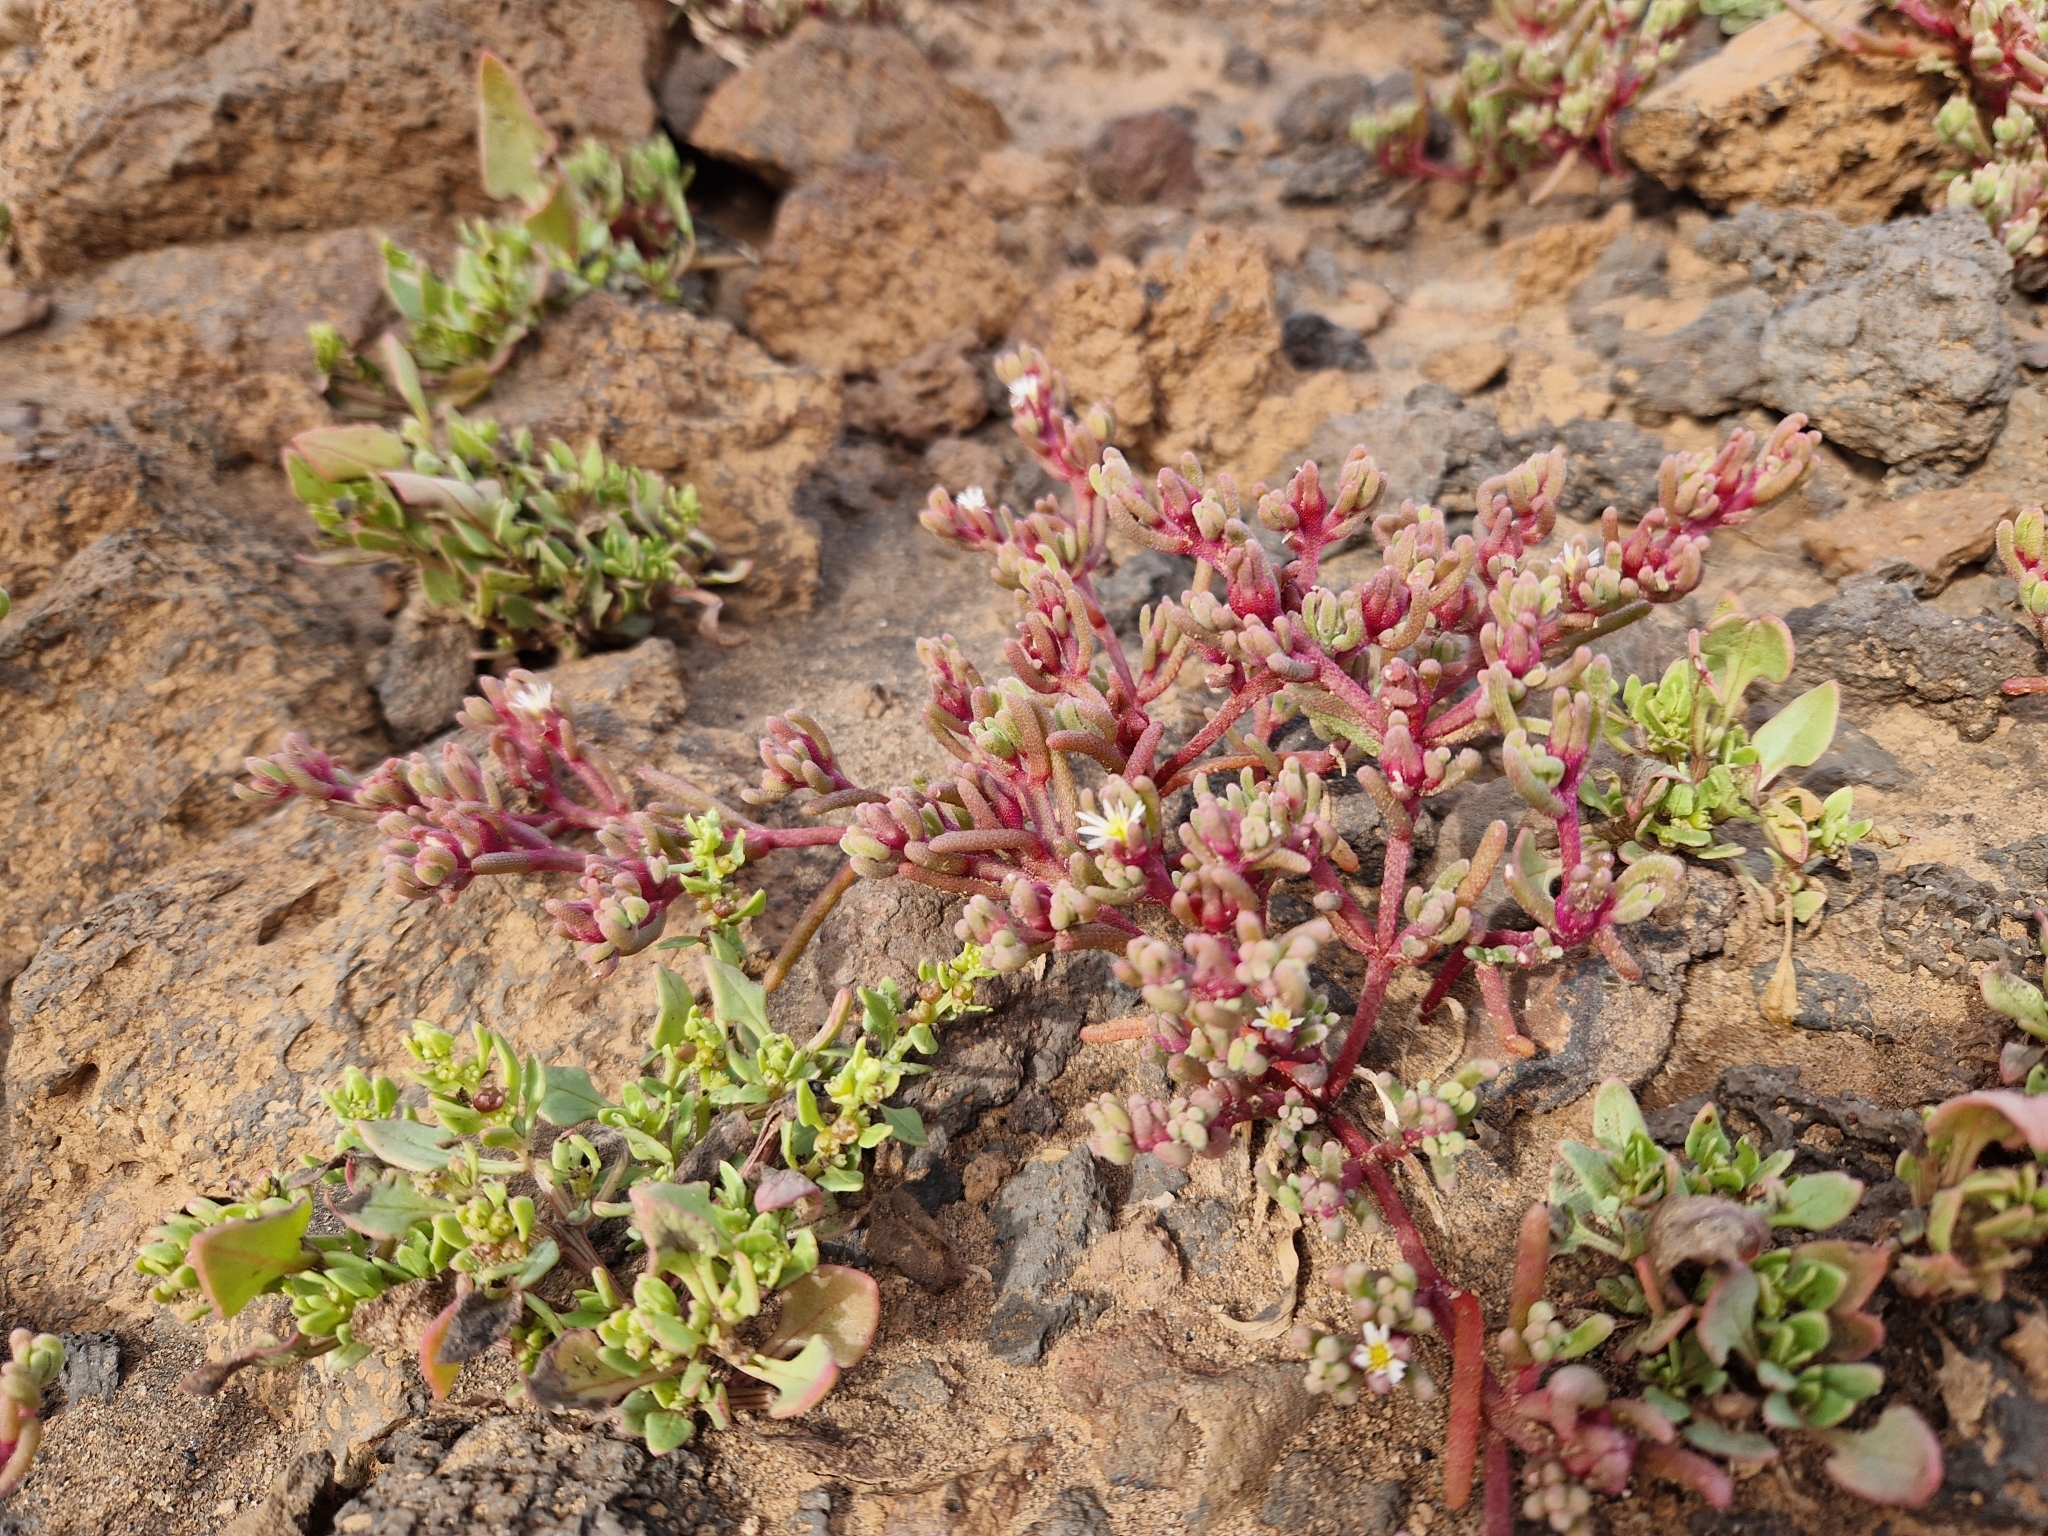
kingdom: Plantae
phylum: Tracheophyta
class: Magnoliopsida
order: Caryophyllales
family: Aizoaceae
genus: Mesembryanthemum
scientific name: Mesembryanthemum nodiflorum
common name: Slenderleaf iceplant
